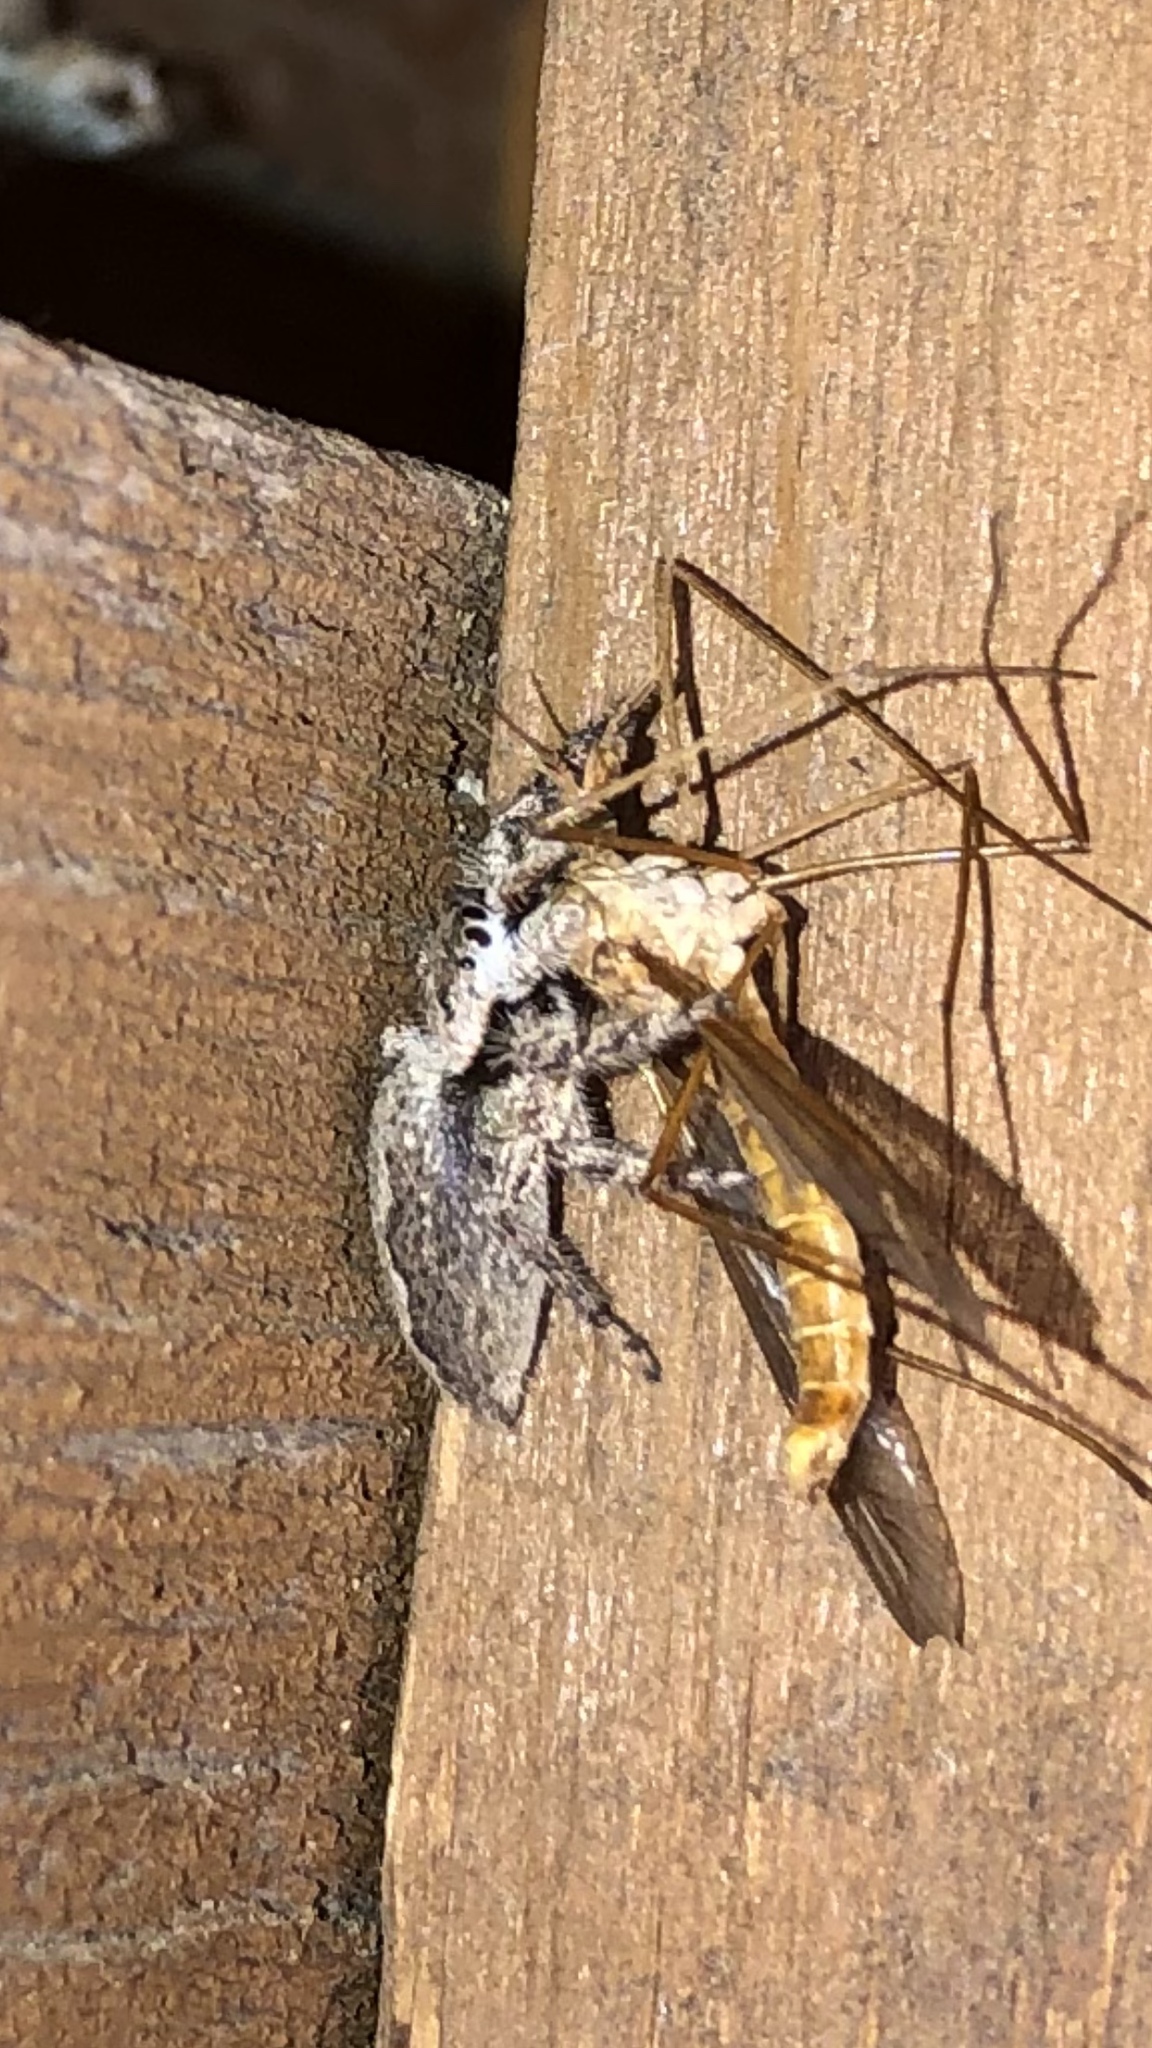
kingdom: Animalia
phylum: Arthropoda
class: Arachnida
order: Araneae
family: Salticidae
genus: Platycryptus
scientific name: Platycryptus undatus
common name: Tan jumping spider
